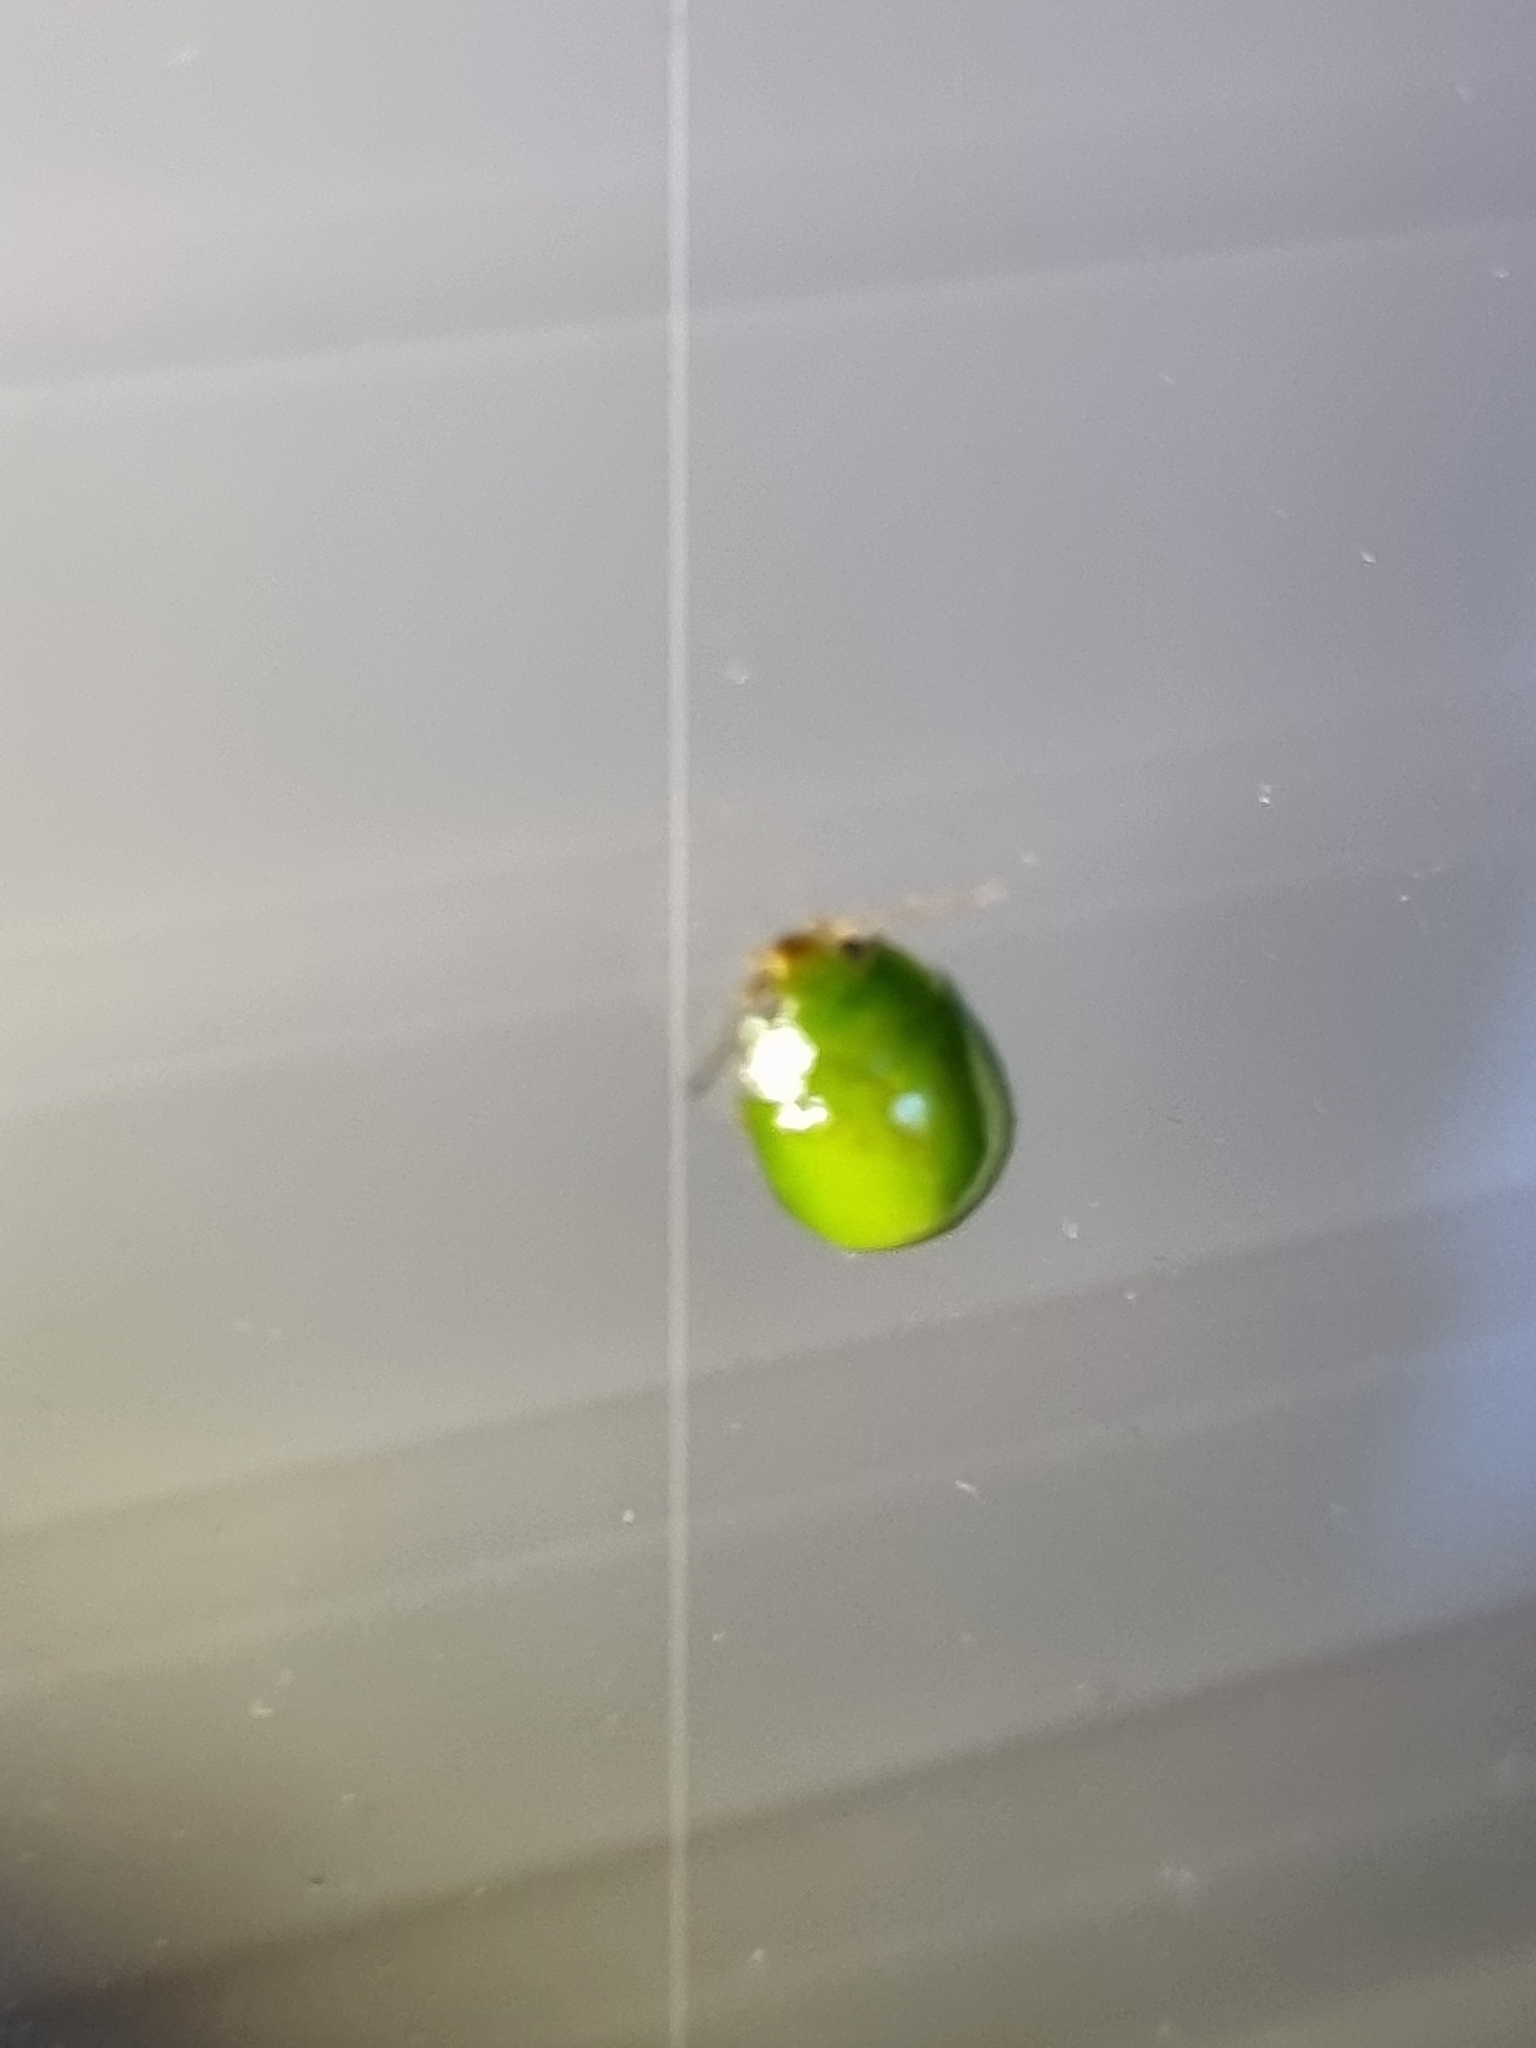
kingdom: Animalia
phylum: Arthropoda
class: Insecta
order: Coleoptera
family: Chrysomelidae
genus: Paropsides
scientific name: Paropsides
